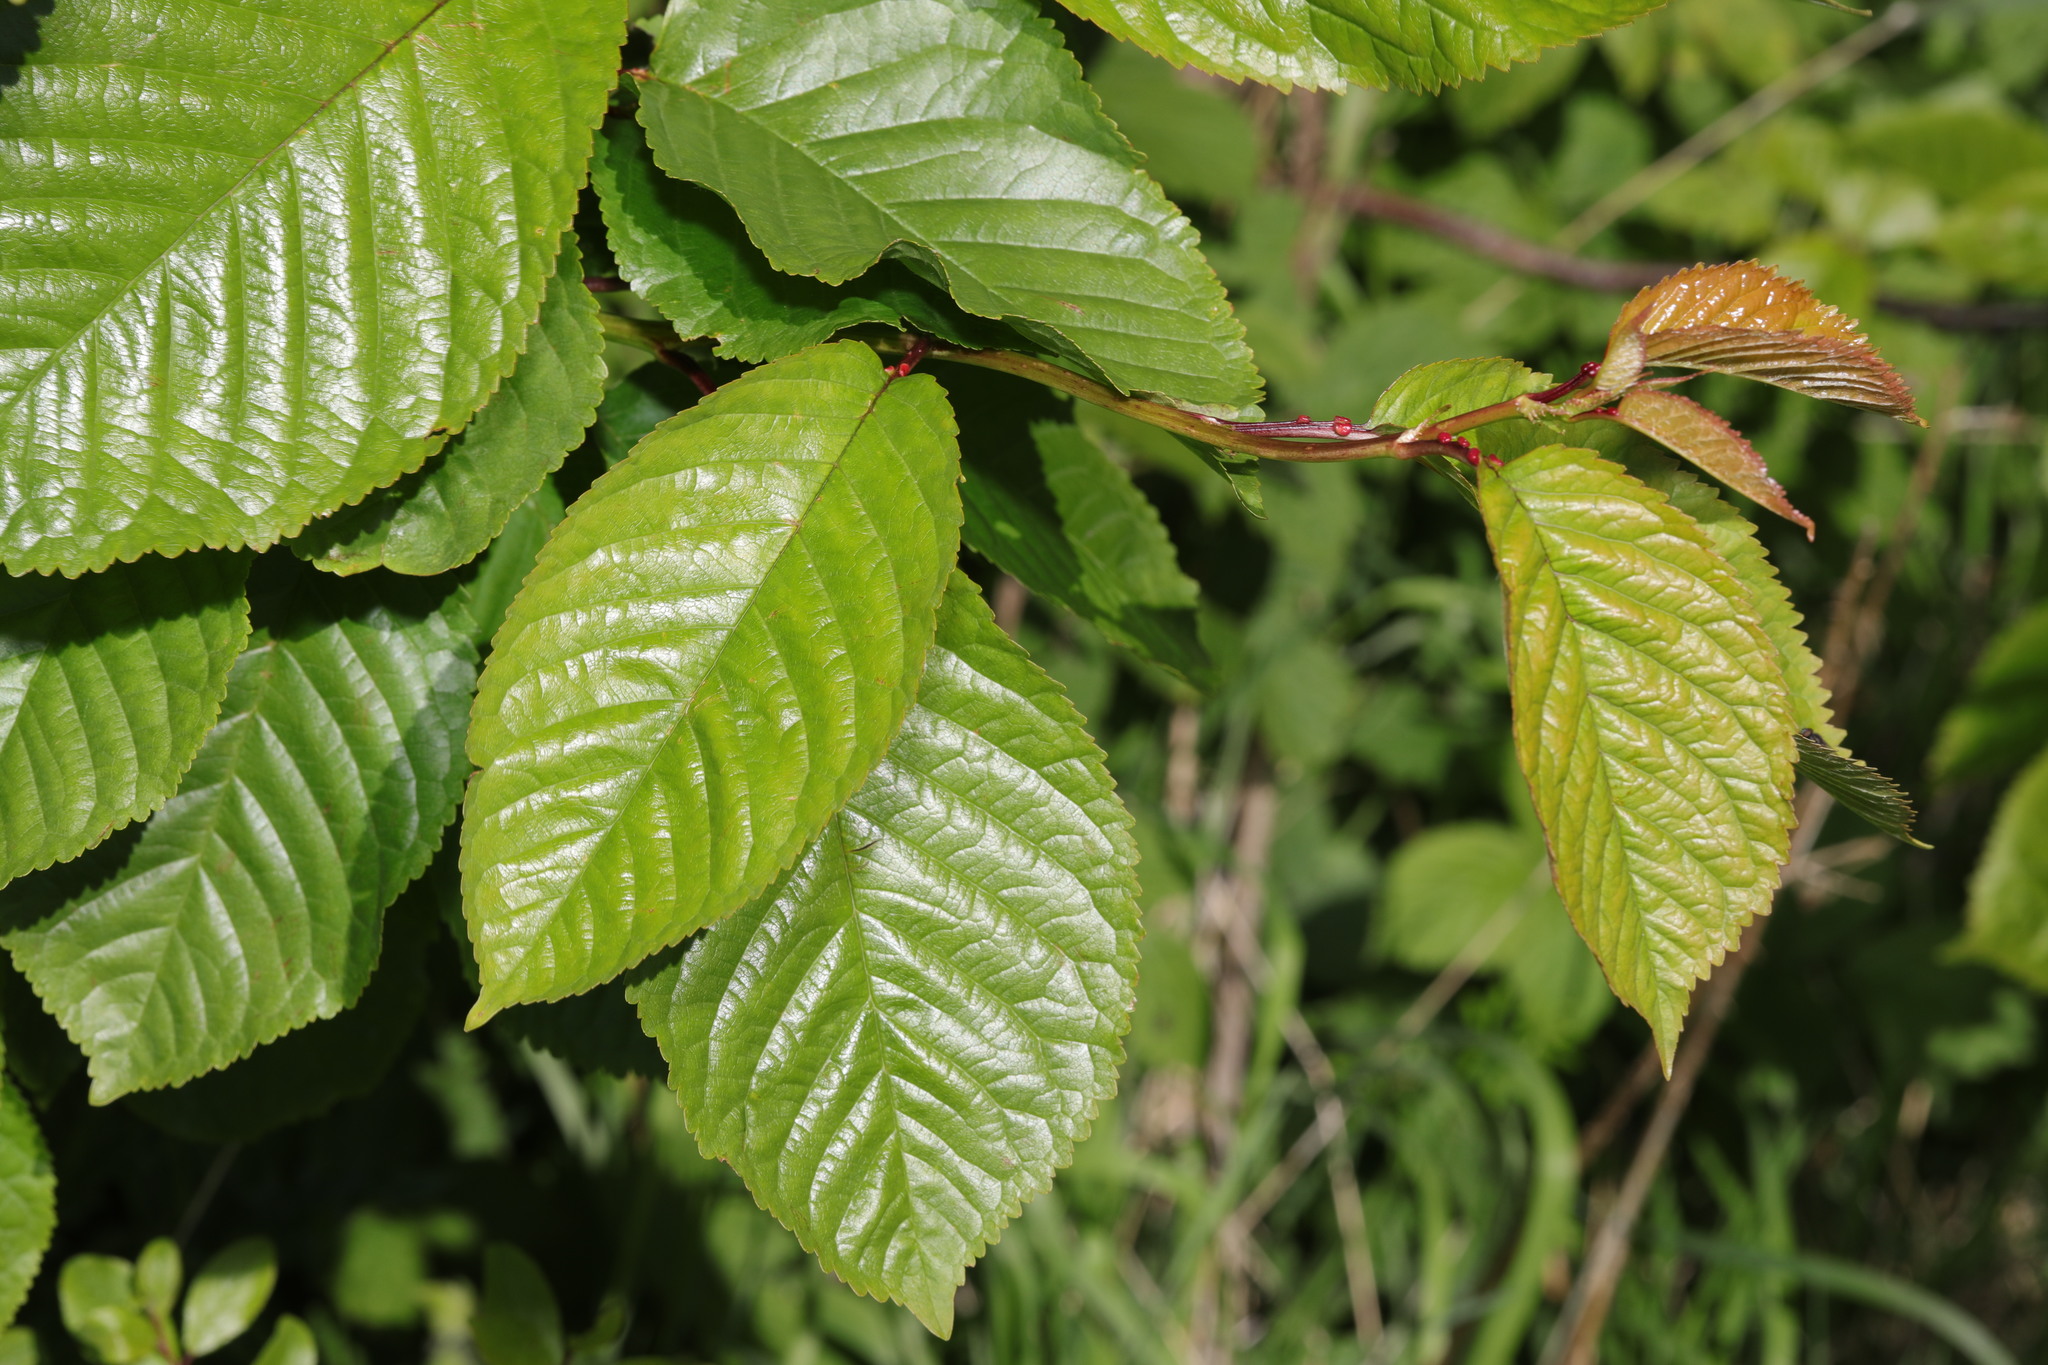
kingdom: Plantae
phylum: Tracheophyta
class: Magnoliopsida
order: Rosales
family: Rosaceae
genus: Prunus
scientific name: Prunus avium
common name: Sweet cherry
